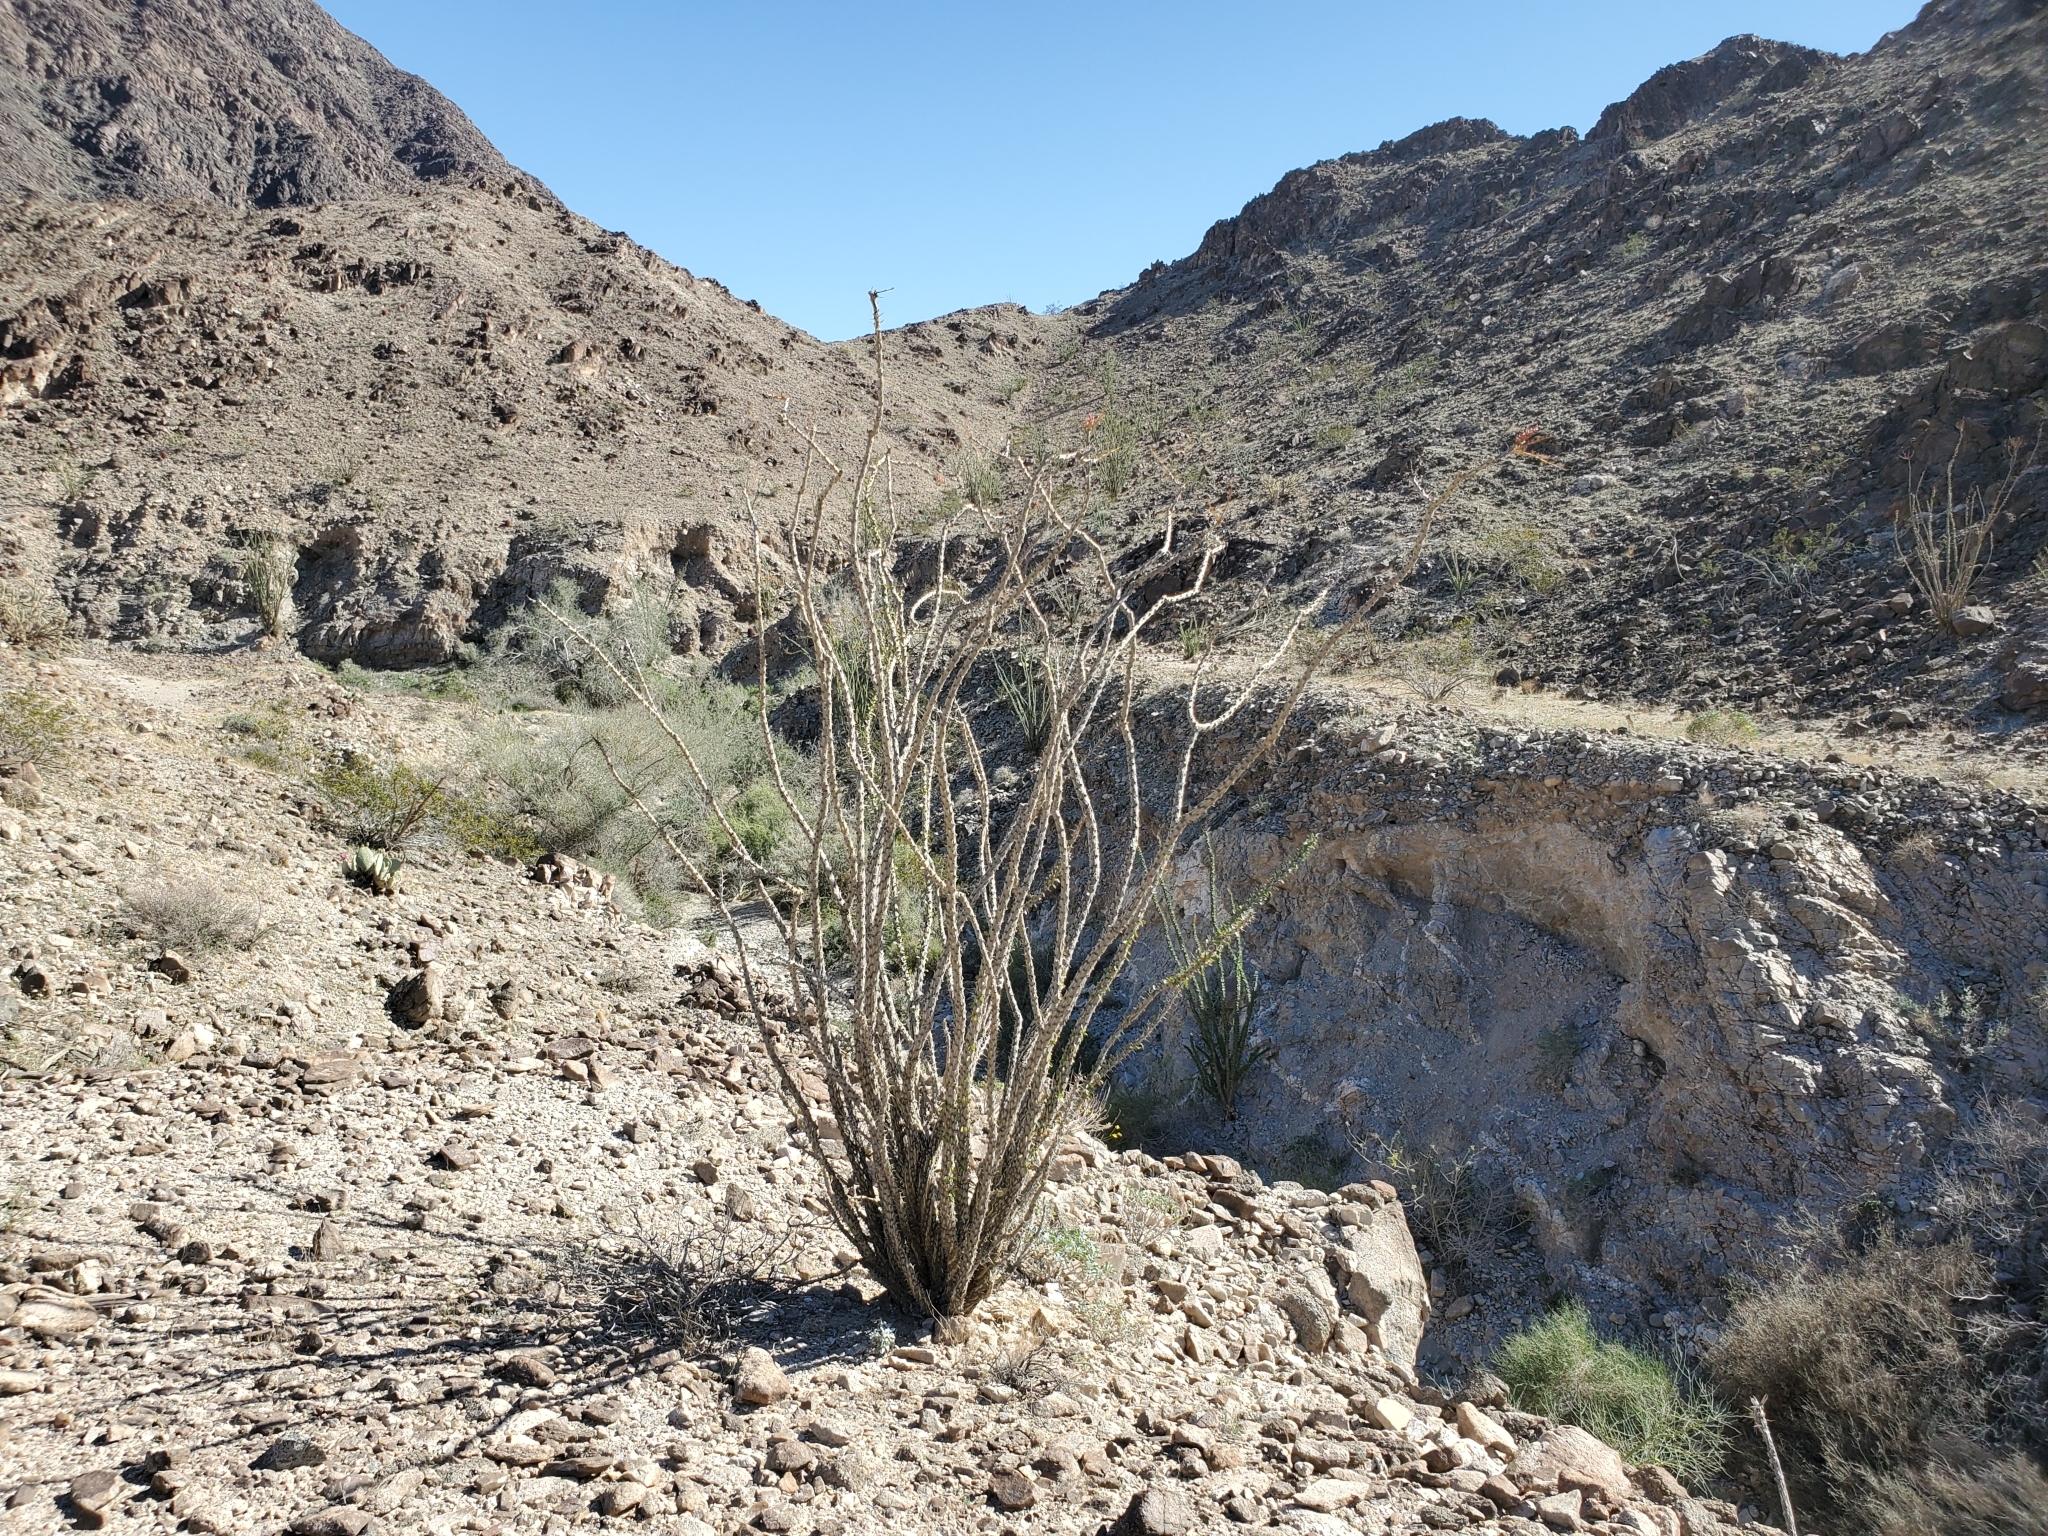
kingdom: Plantae
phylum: Tracheophyta
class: Magnoliopsida
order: Ericales
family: Fouquieriaceae
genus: Fouquieria
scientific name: Fouquieria splendens
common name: Vine-cactus
